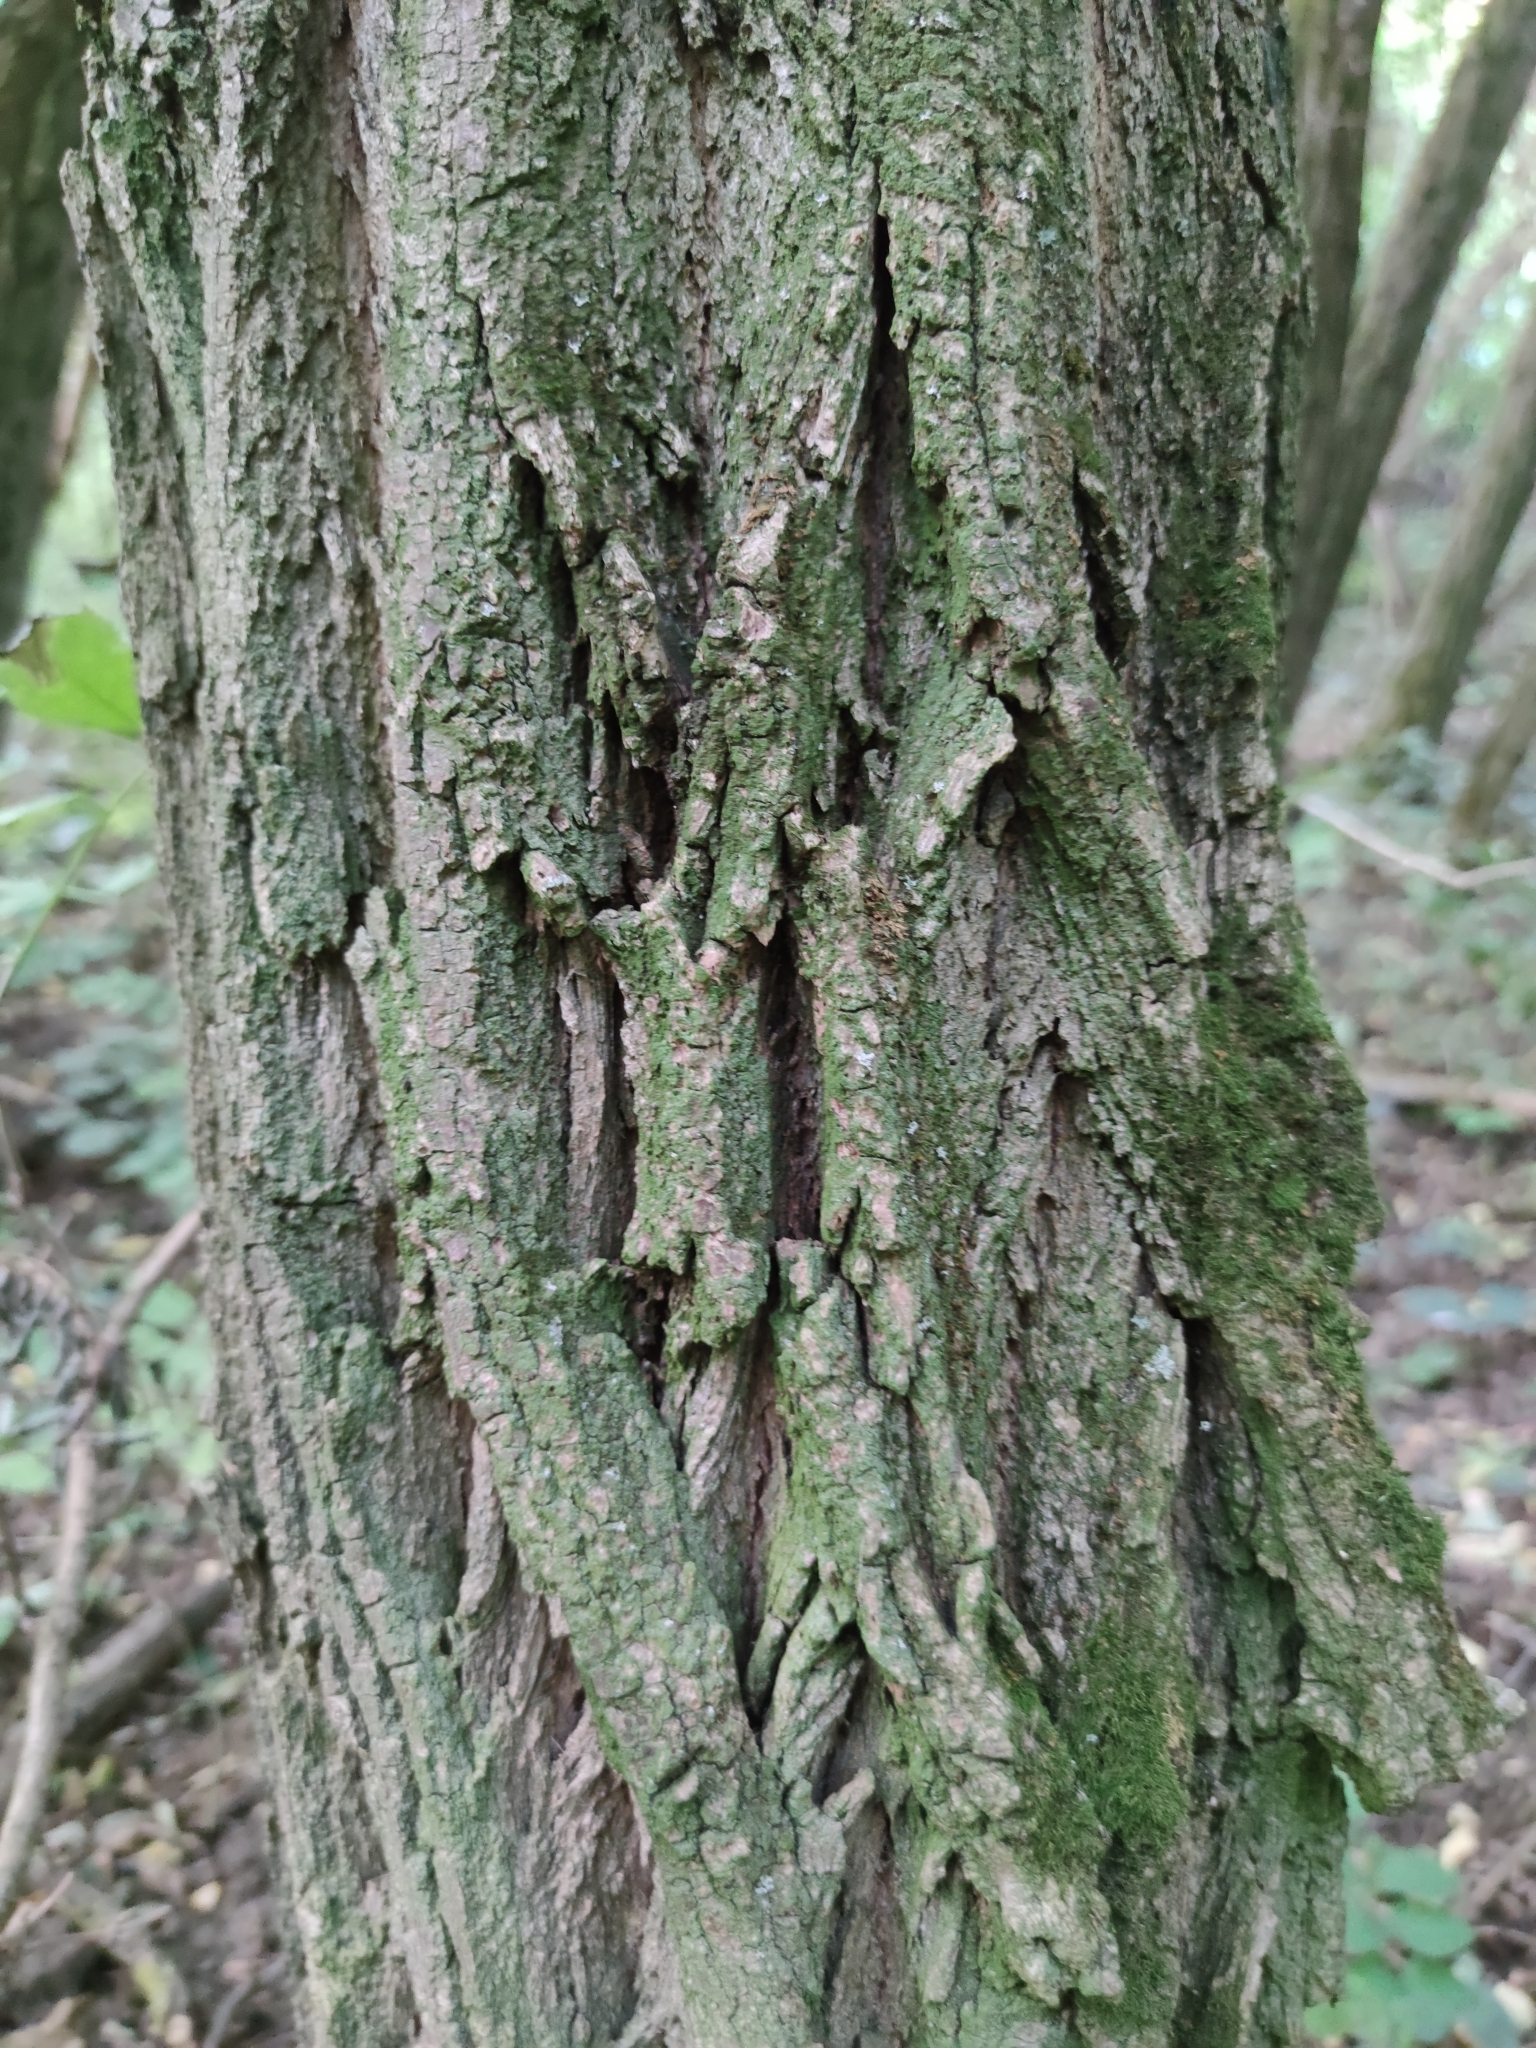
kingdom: Plantae
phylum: Tracheophyta
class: Magnoliopsida
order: Fabales
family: Fabaceae
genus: Robinia
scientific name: Robinia pseudoacacia
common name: Black locust
